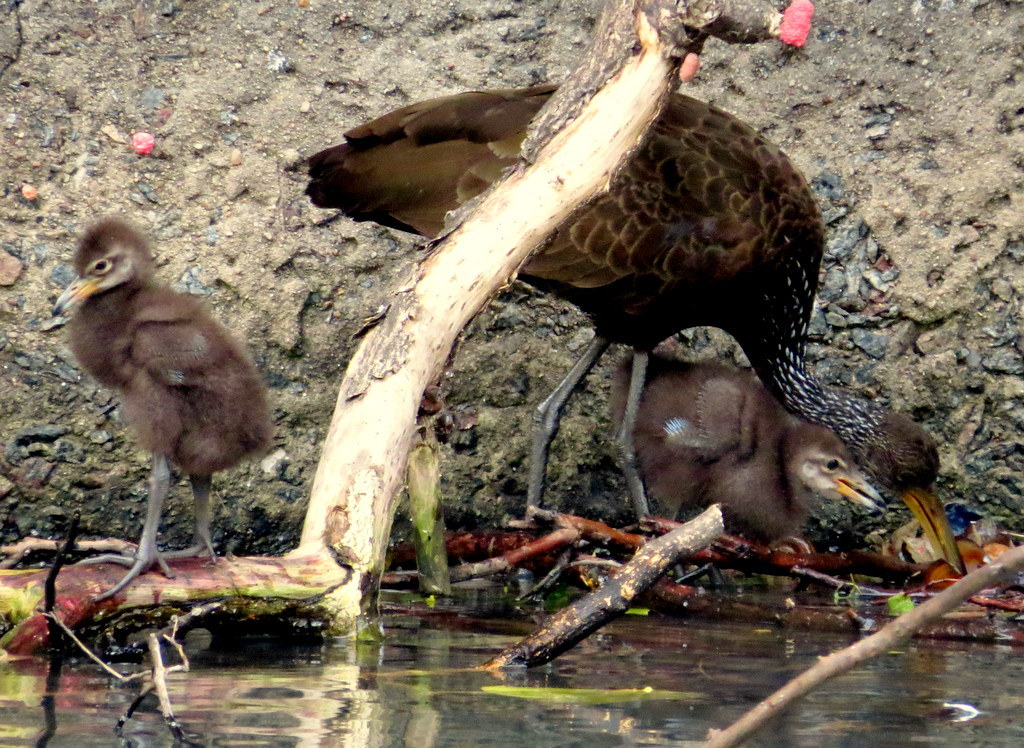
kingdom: Animalia
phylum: Chordata
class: Aves
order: Gruiformes
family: Aramidae
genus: Aramus
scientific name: Aramus guarauna
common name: Limpkin
